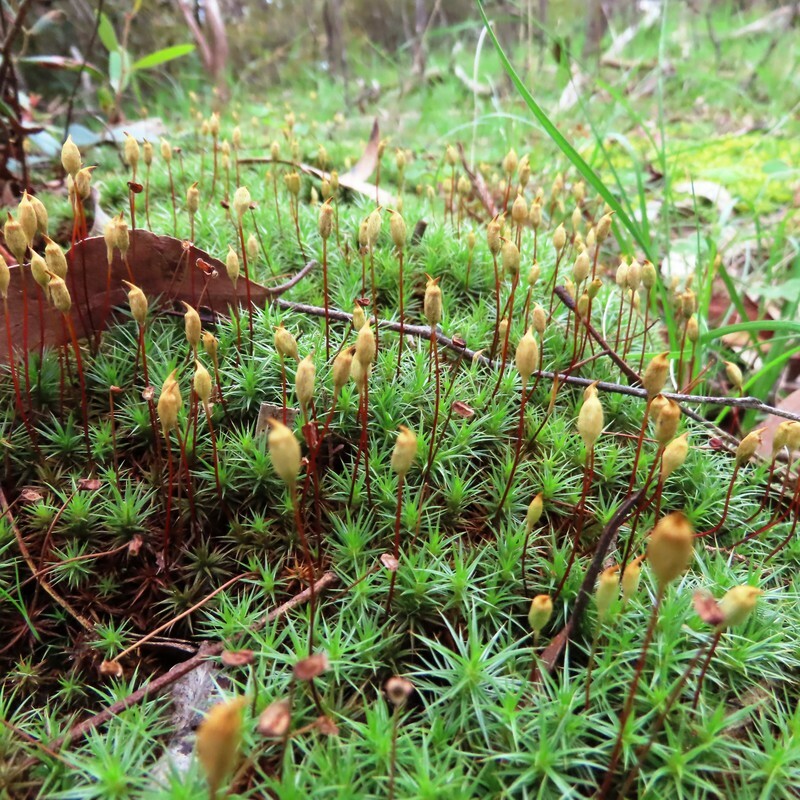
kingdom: Plantae
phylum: Bryophyta
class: Polytrichopsida
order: Polytrichales
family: Polytrichaceae
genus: Polytrichum
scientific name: Polytrichum juniperinum
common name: Juniper haircap moss
